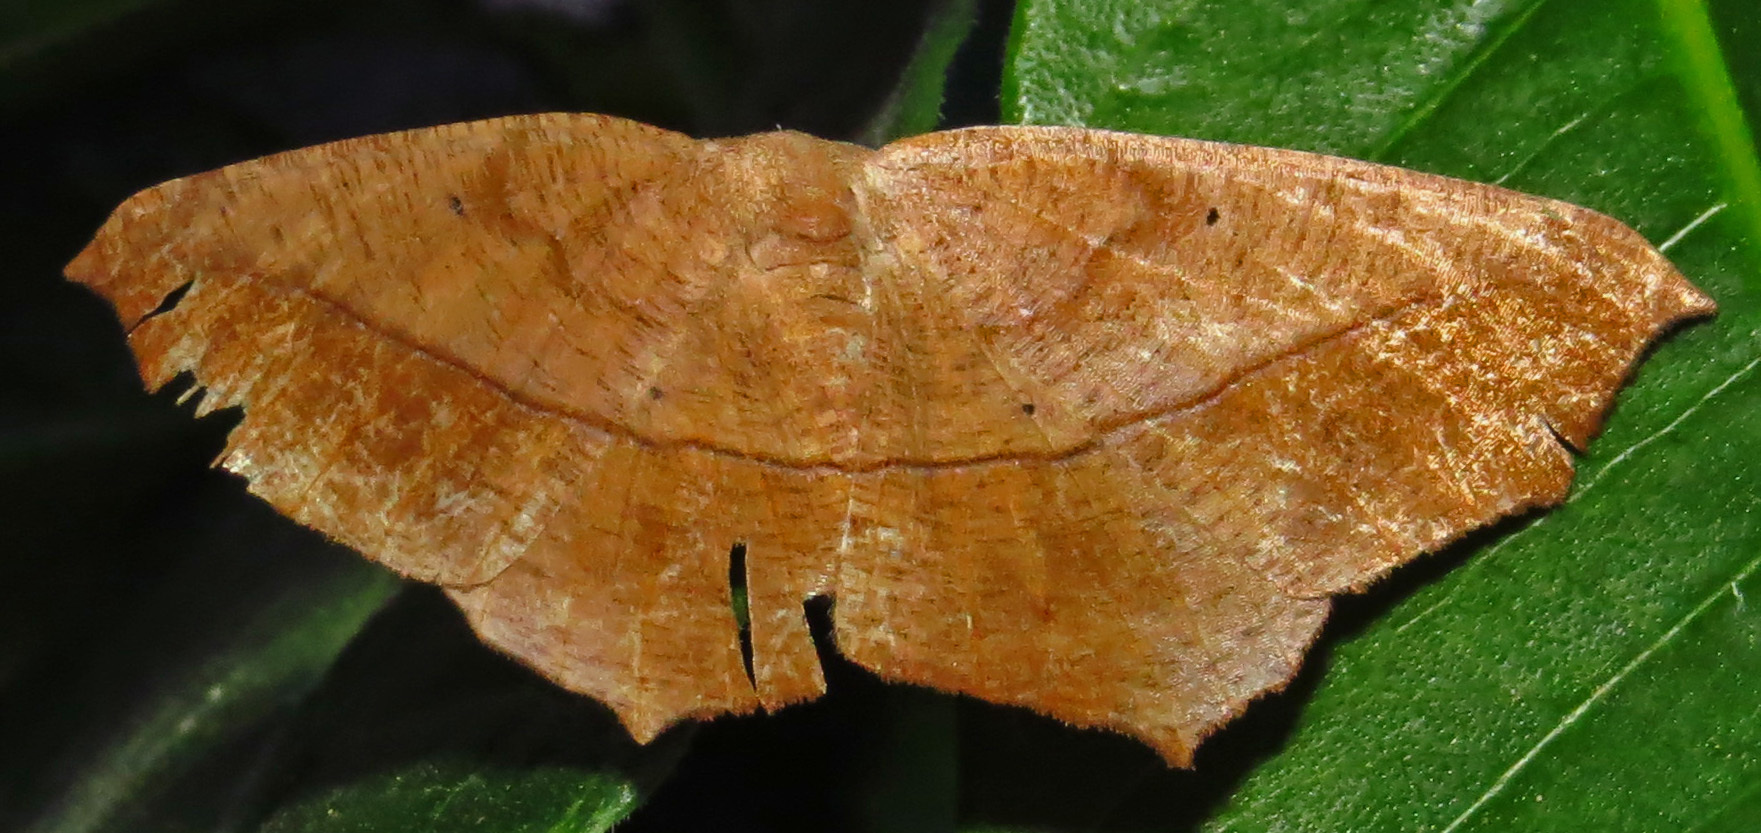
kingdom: Animalia
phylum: Arthropoda
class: Insecta
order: Lepidoptera
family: Geometridae
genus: Prochoerodes
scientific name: Prochoerodes lineola
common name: Large maple spanworm
